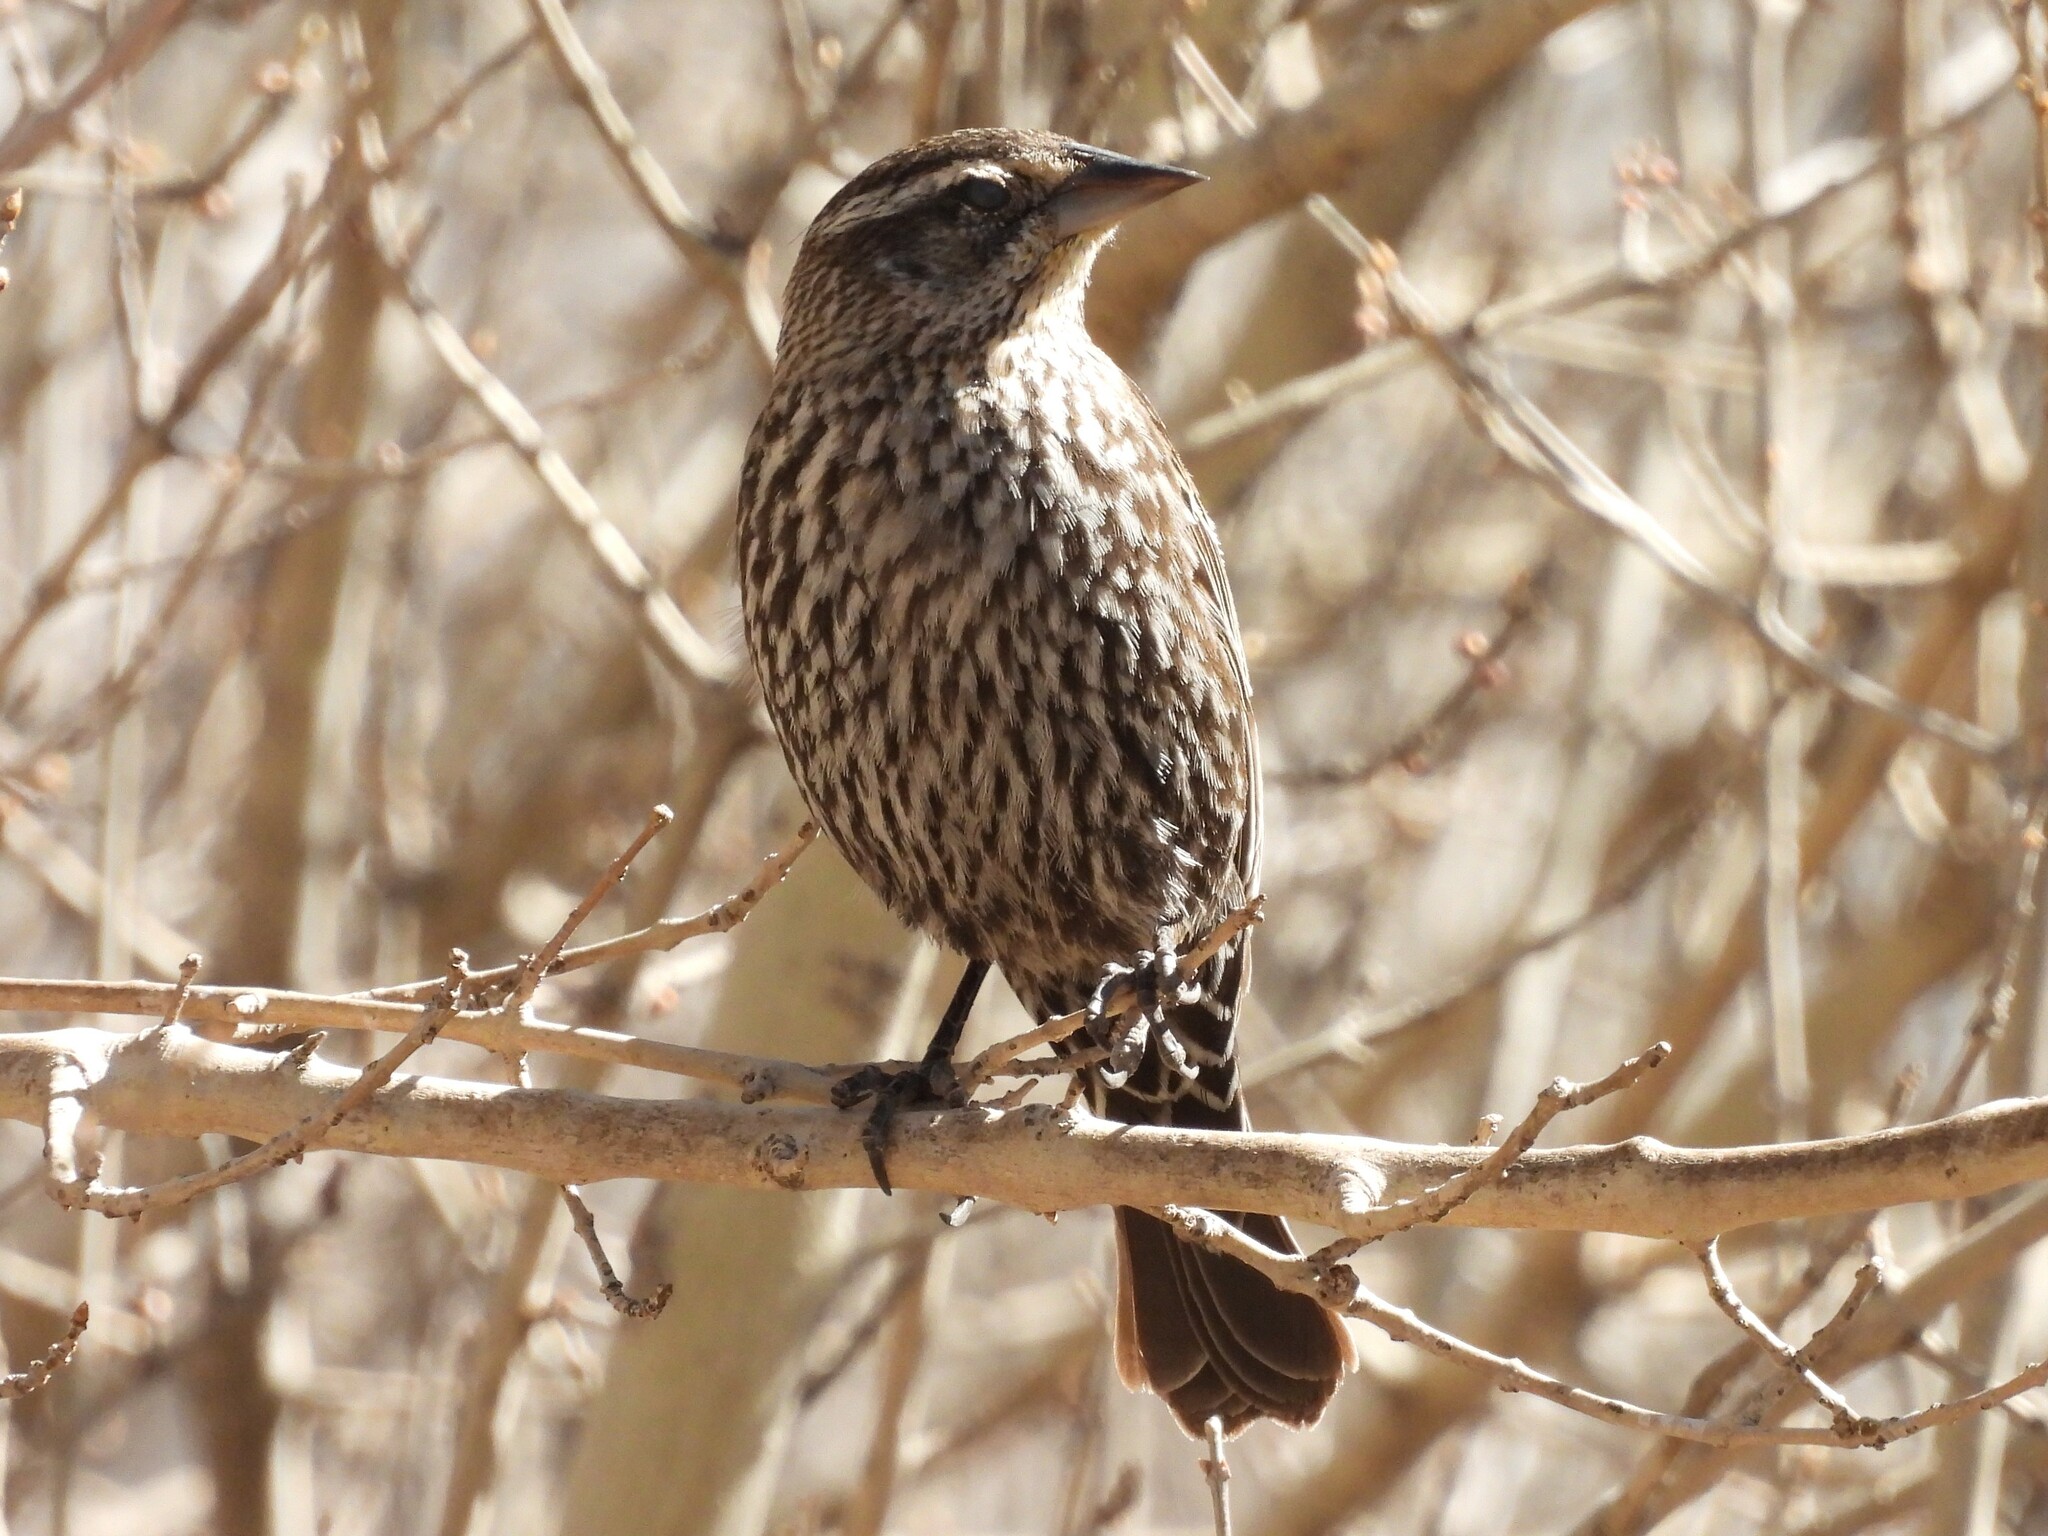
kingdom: Animalia
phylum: Chordata
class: Aves
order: Passeriformes
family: Icteridae
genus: Agelaius
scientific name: Agelaius phoeniceus
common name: Red-winged blackbird
